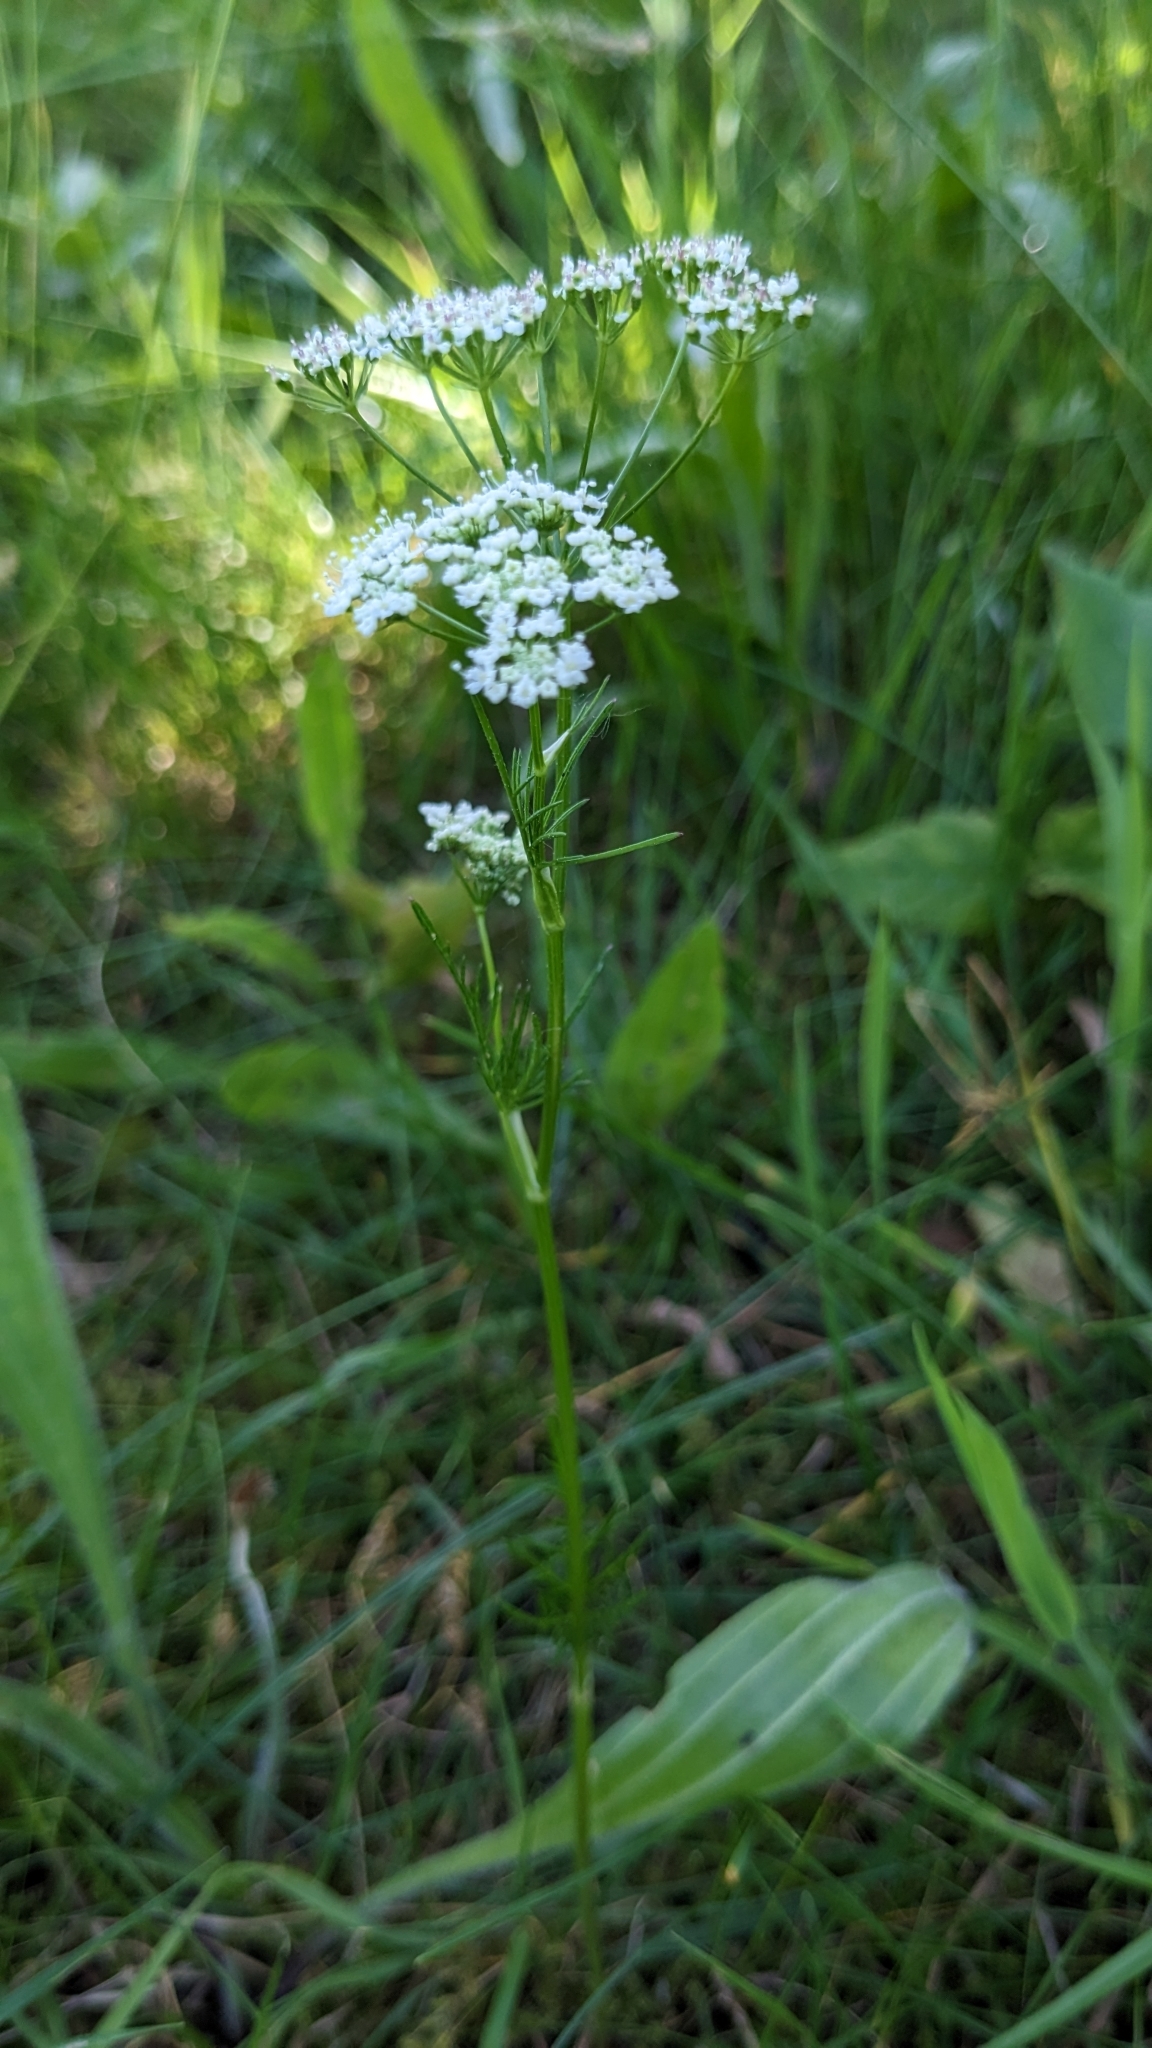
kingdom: Plantae
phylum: Tracheophyta
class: Magnoliopsida
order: Apiales
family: Apiaceae
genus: Conopodium
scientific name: Conopodium majus
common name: Pignut
